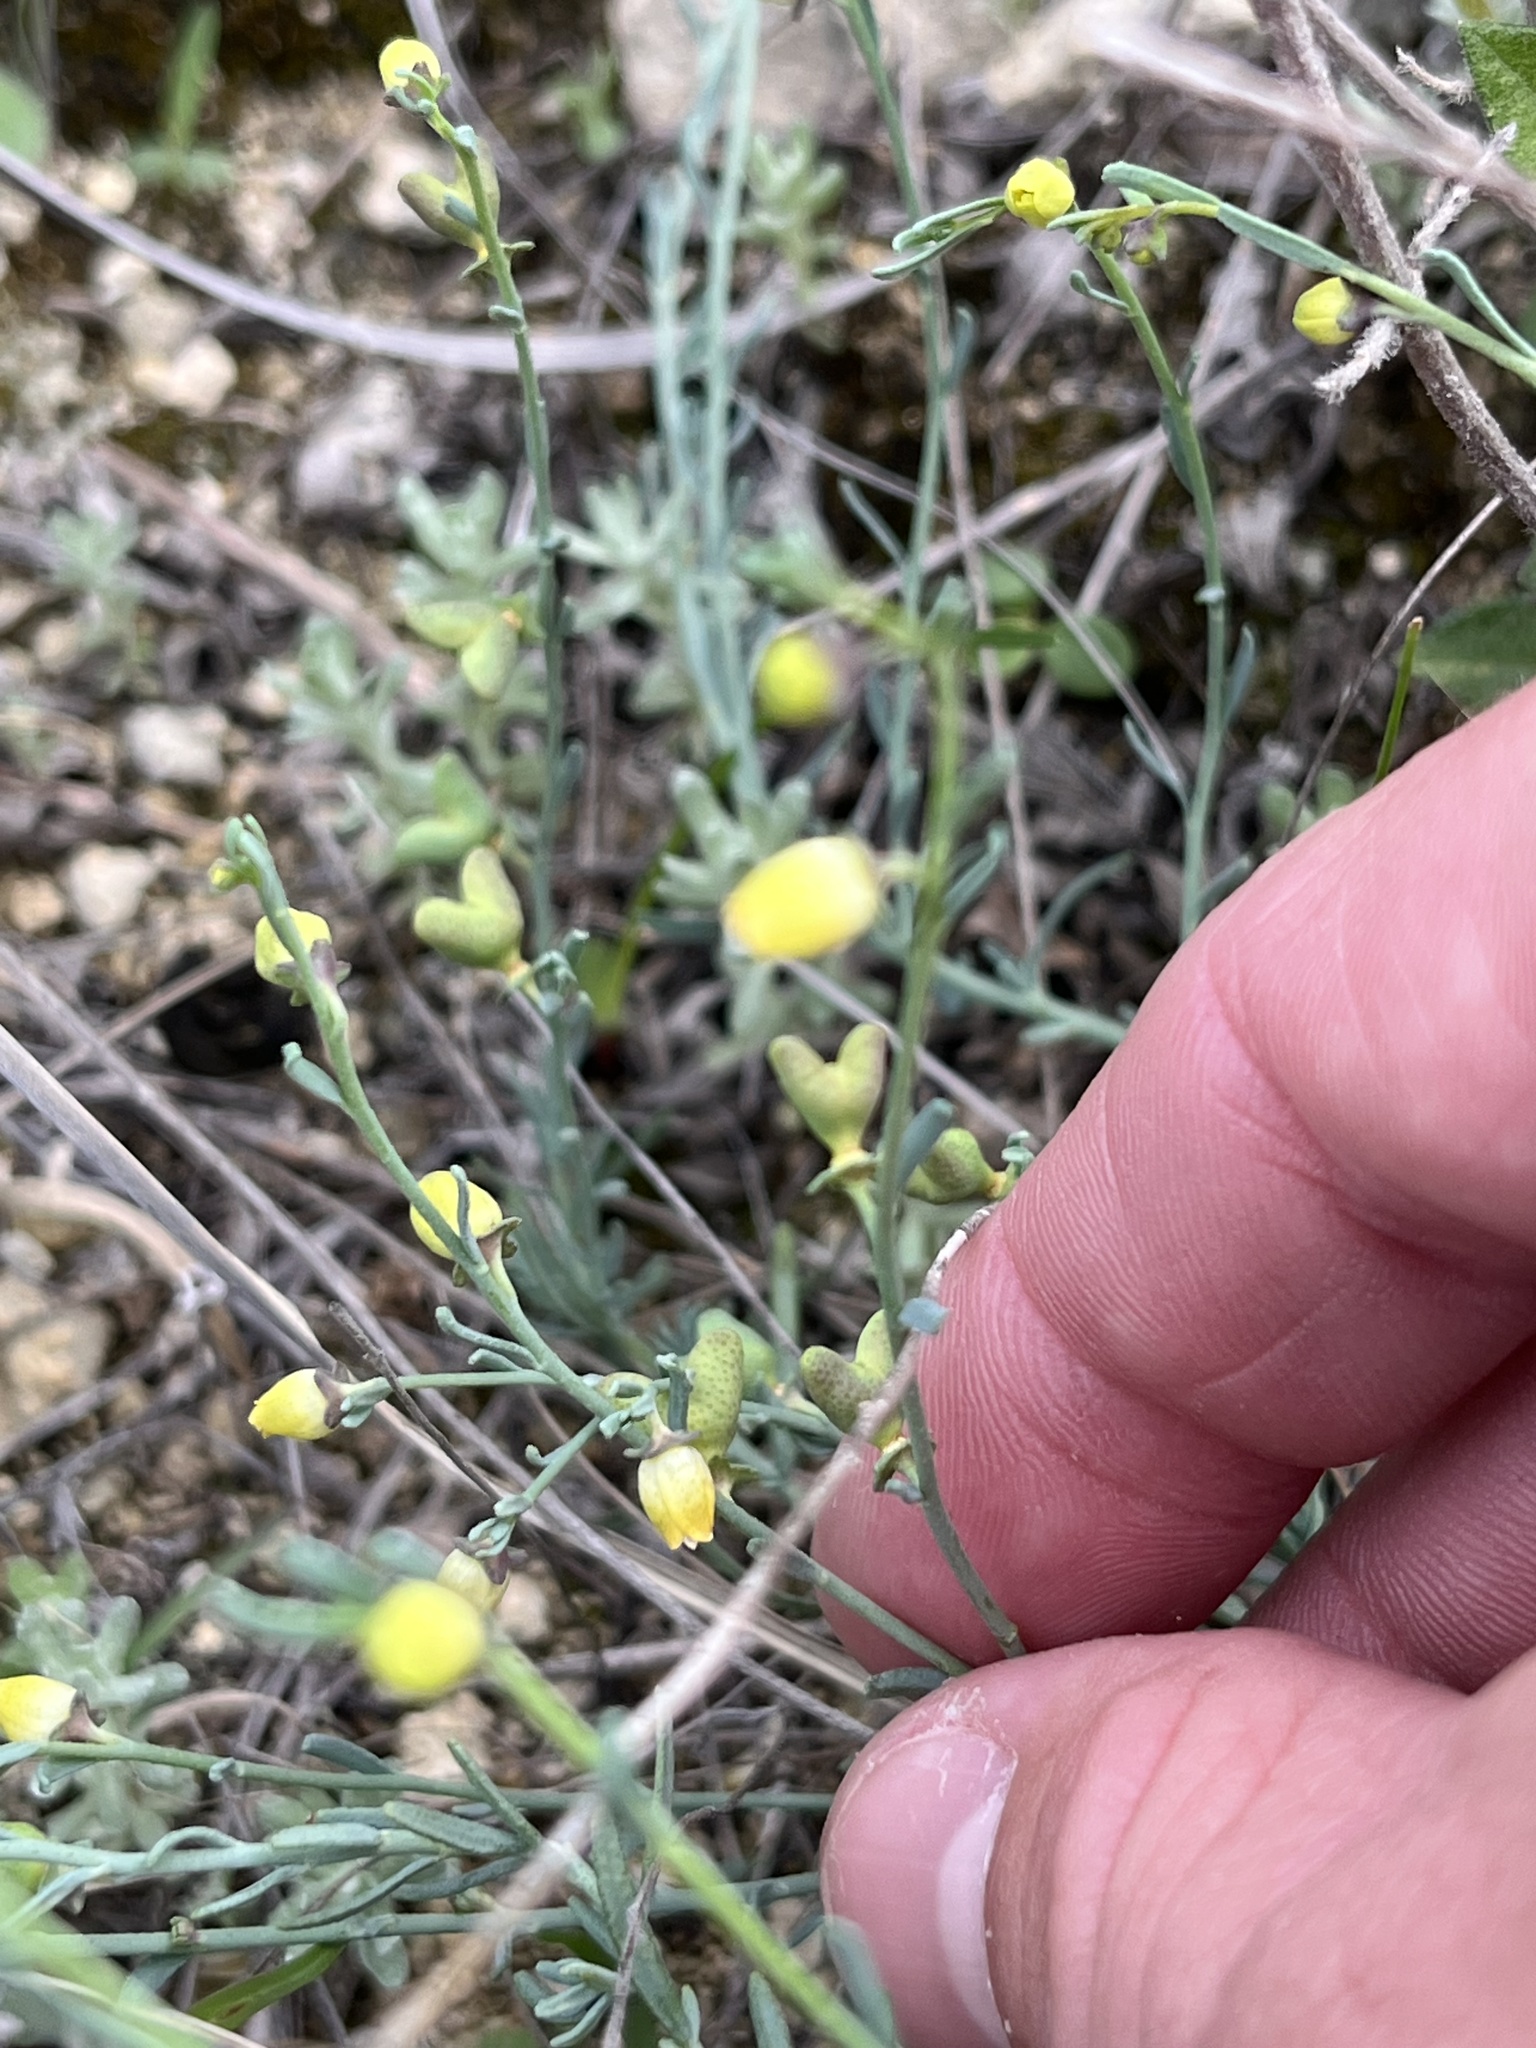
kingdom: Plantae
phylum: Tracheophyta
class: Magnoliopsida
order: Sapindales
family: Rutaceae
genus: Thamnosma
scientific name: Thamnosma texana
